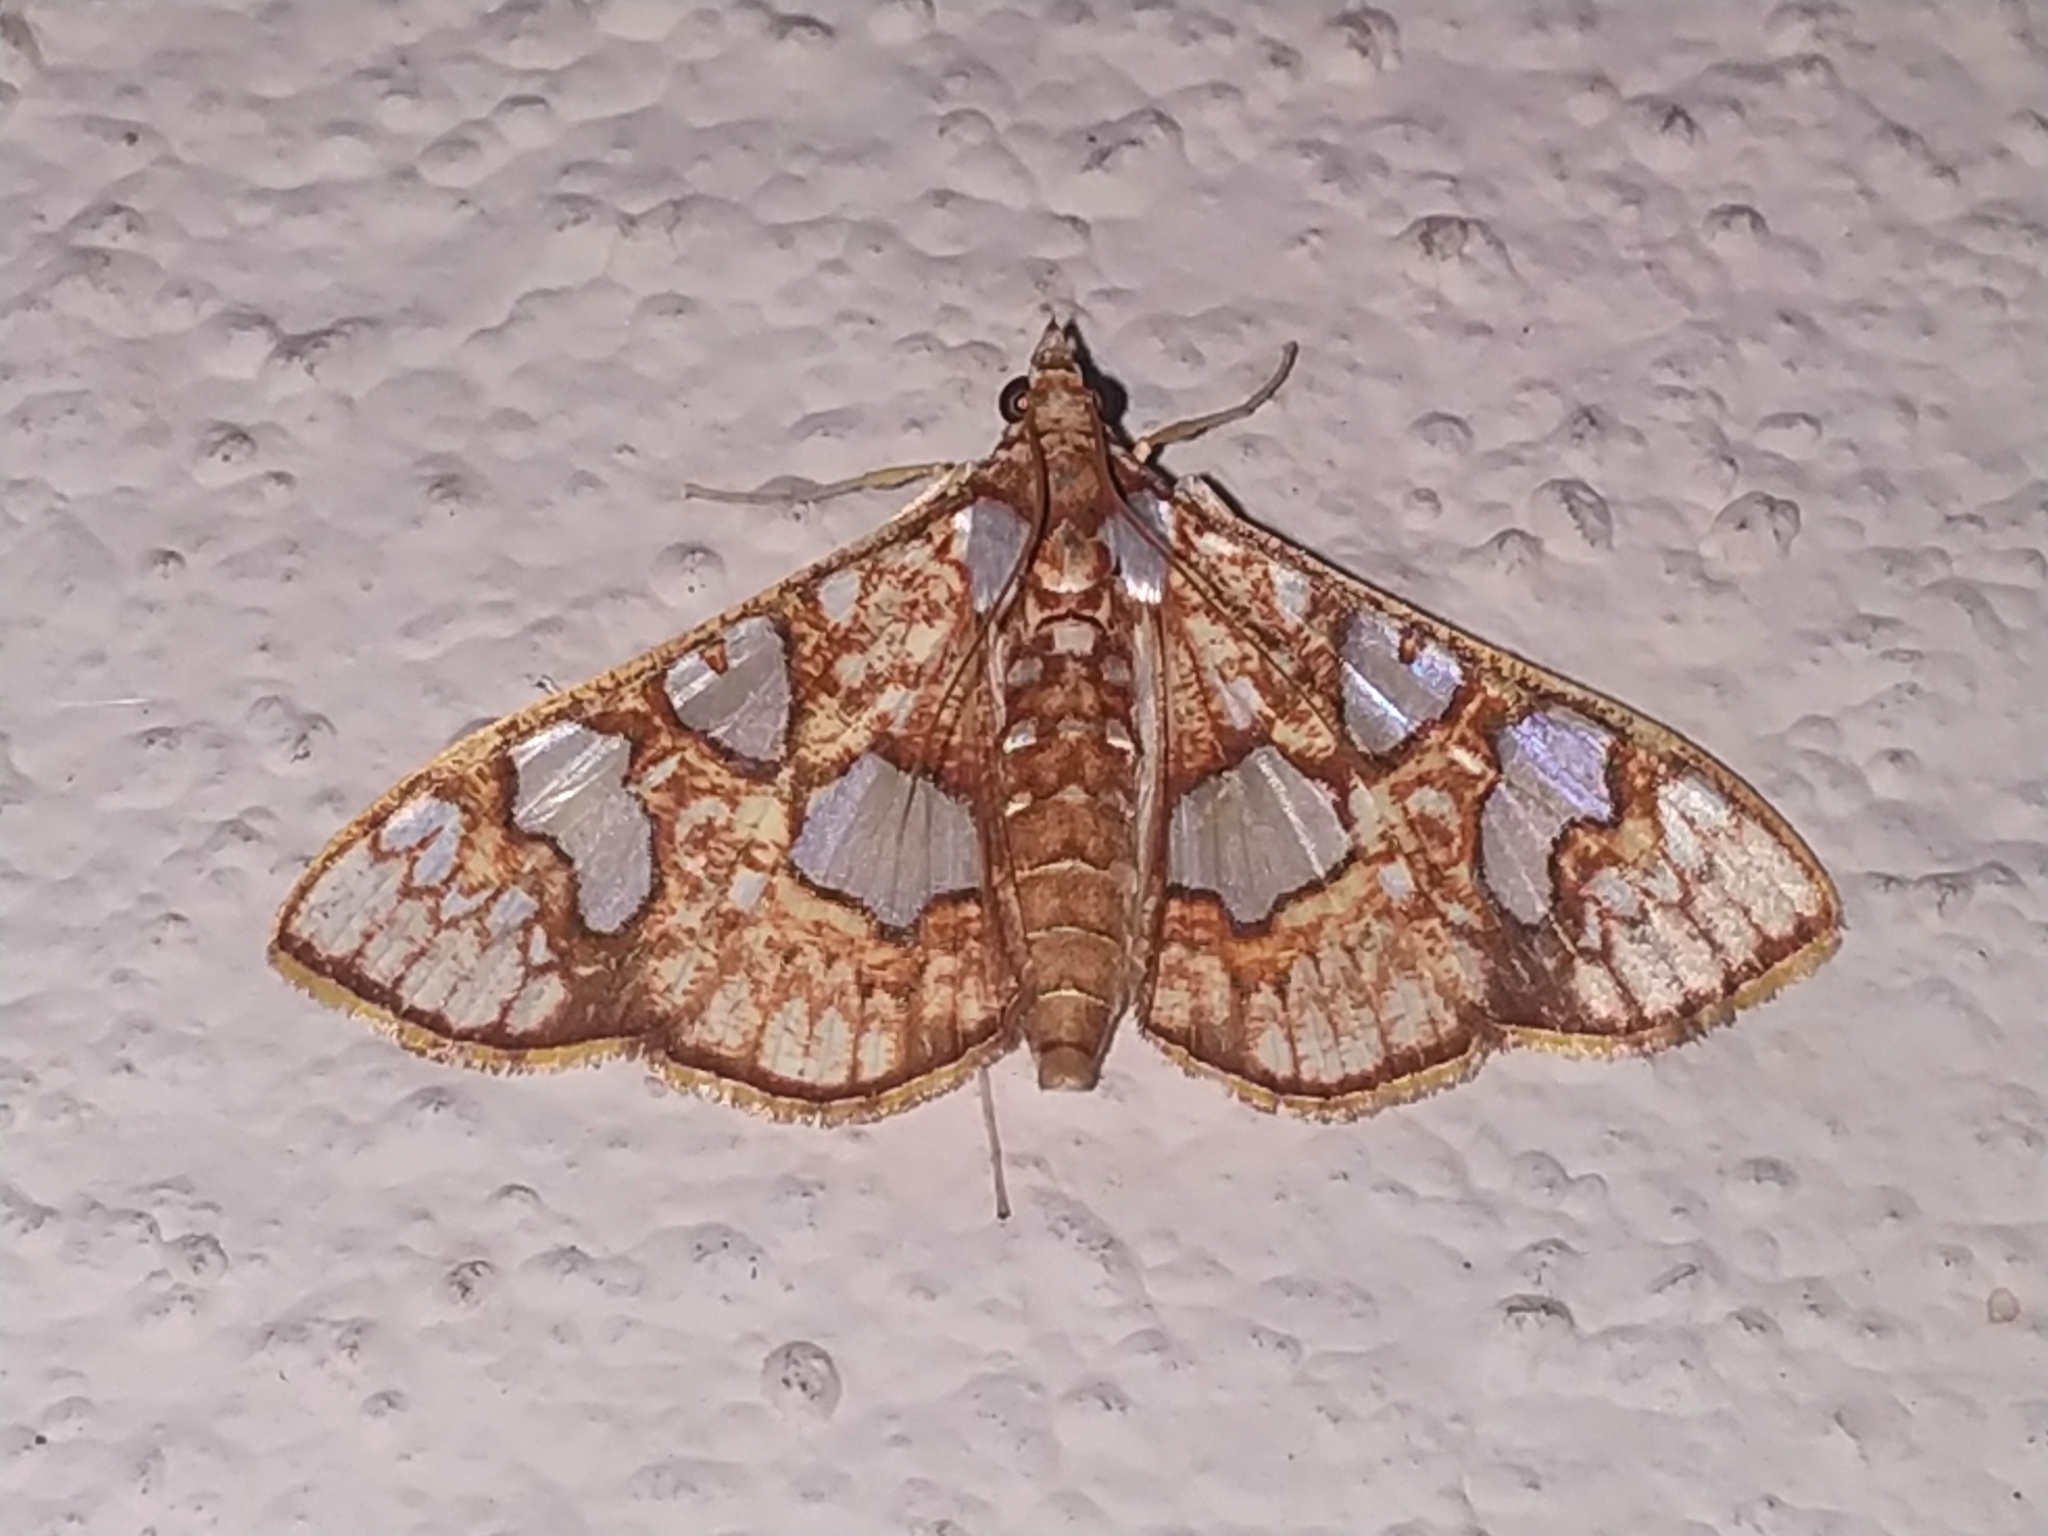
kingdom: Animalia
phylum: Arthropoda
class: Insecta
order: Lepidoptera
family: Crambidae
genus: Glyphodes
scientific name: Glyphodes canthusalis
